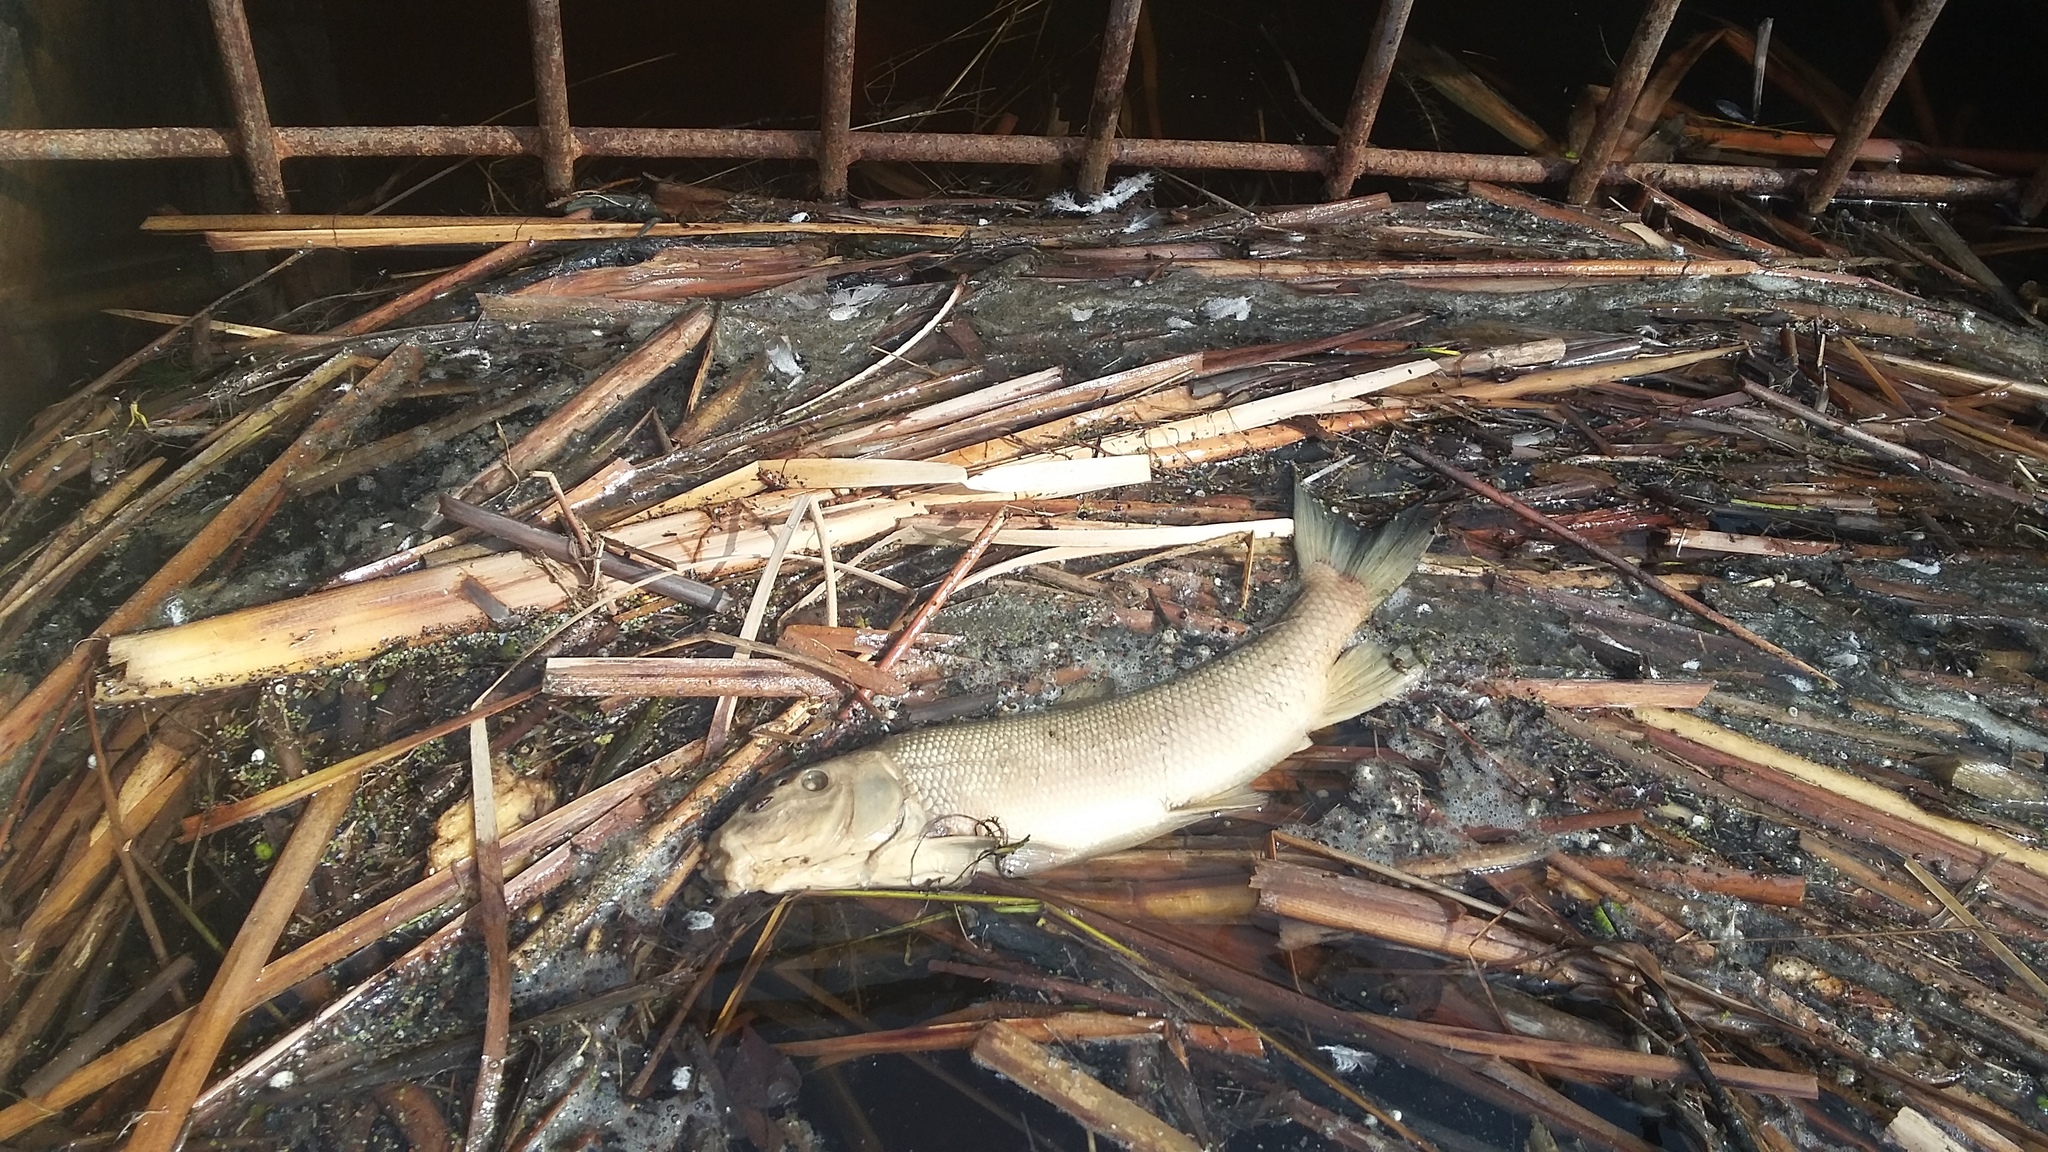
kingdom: Animalia
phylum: Chordata
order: Cypriniformes
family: Catostomidae
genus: Catostomus
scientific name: Catostomus commersonii
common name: White sucker
